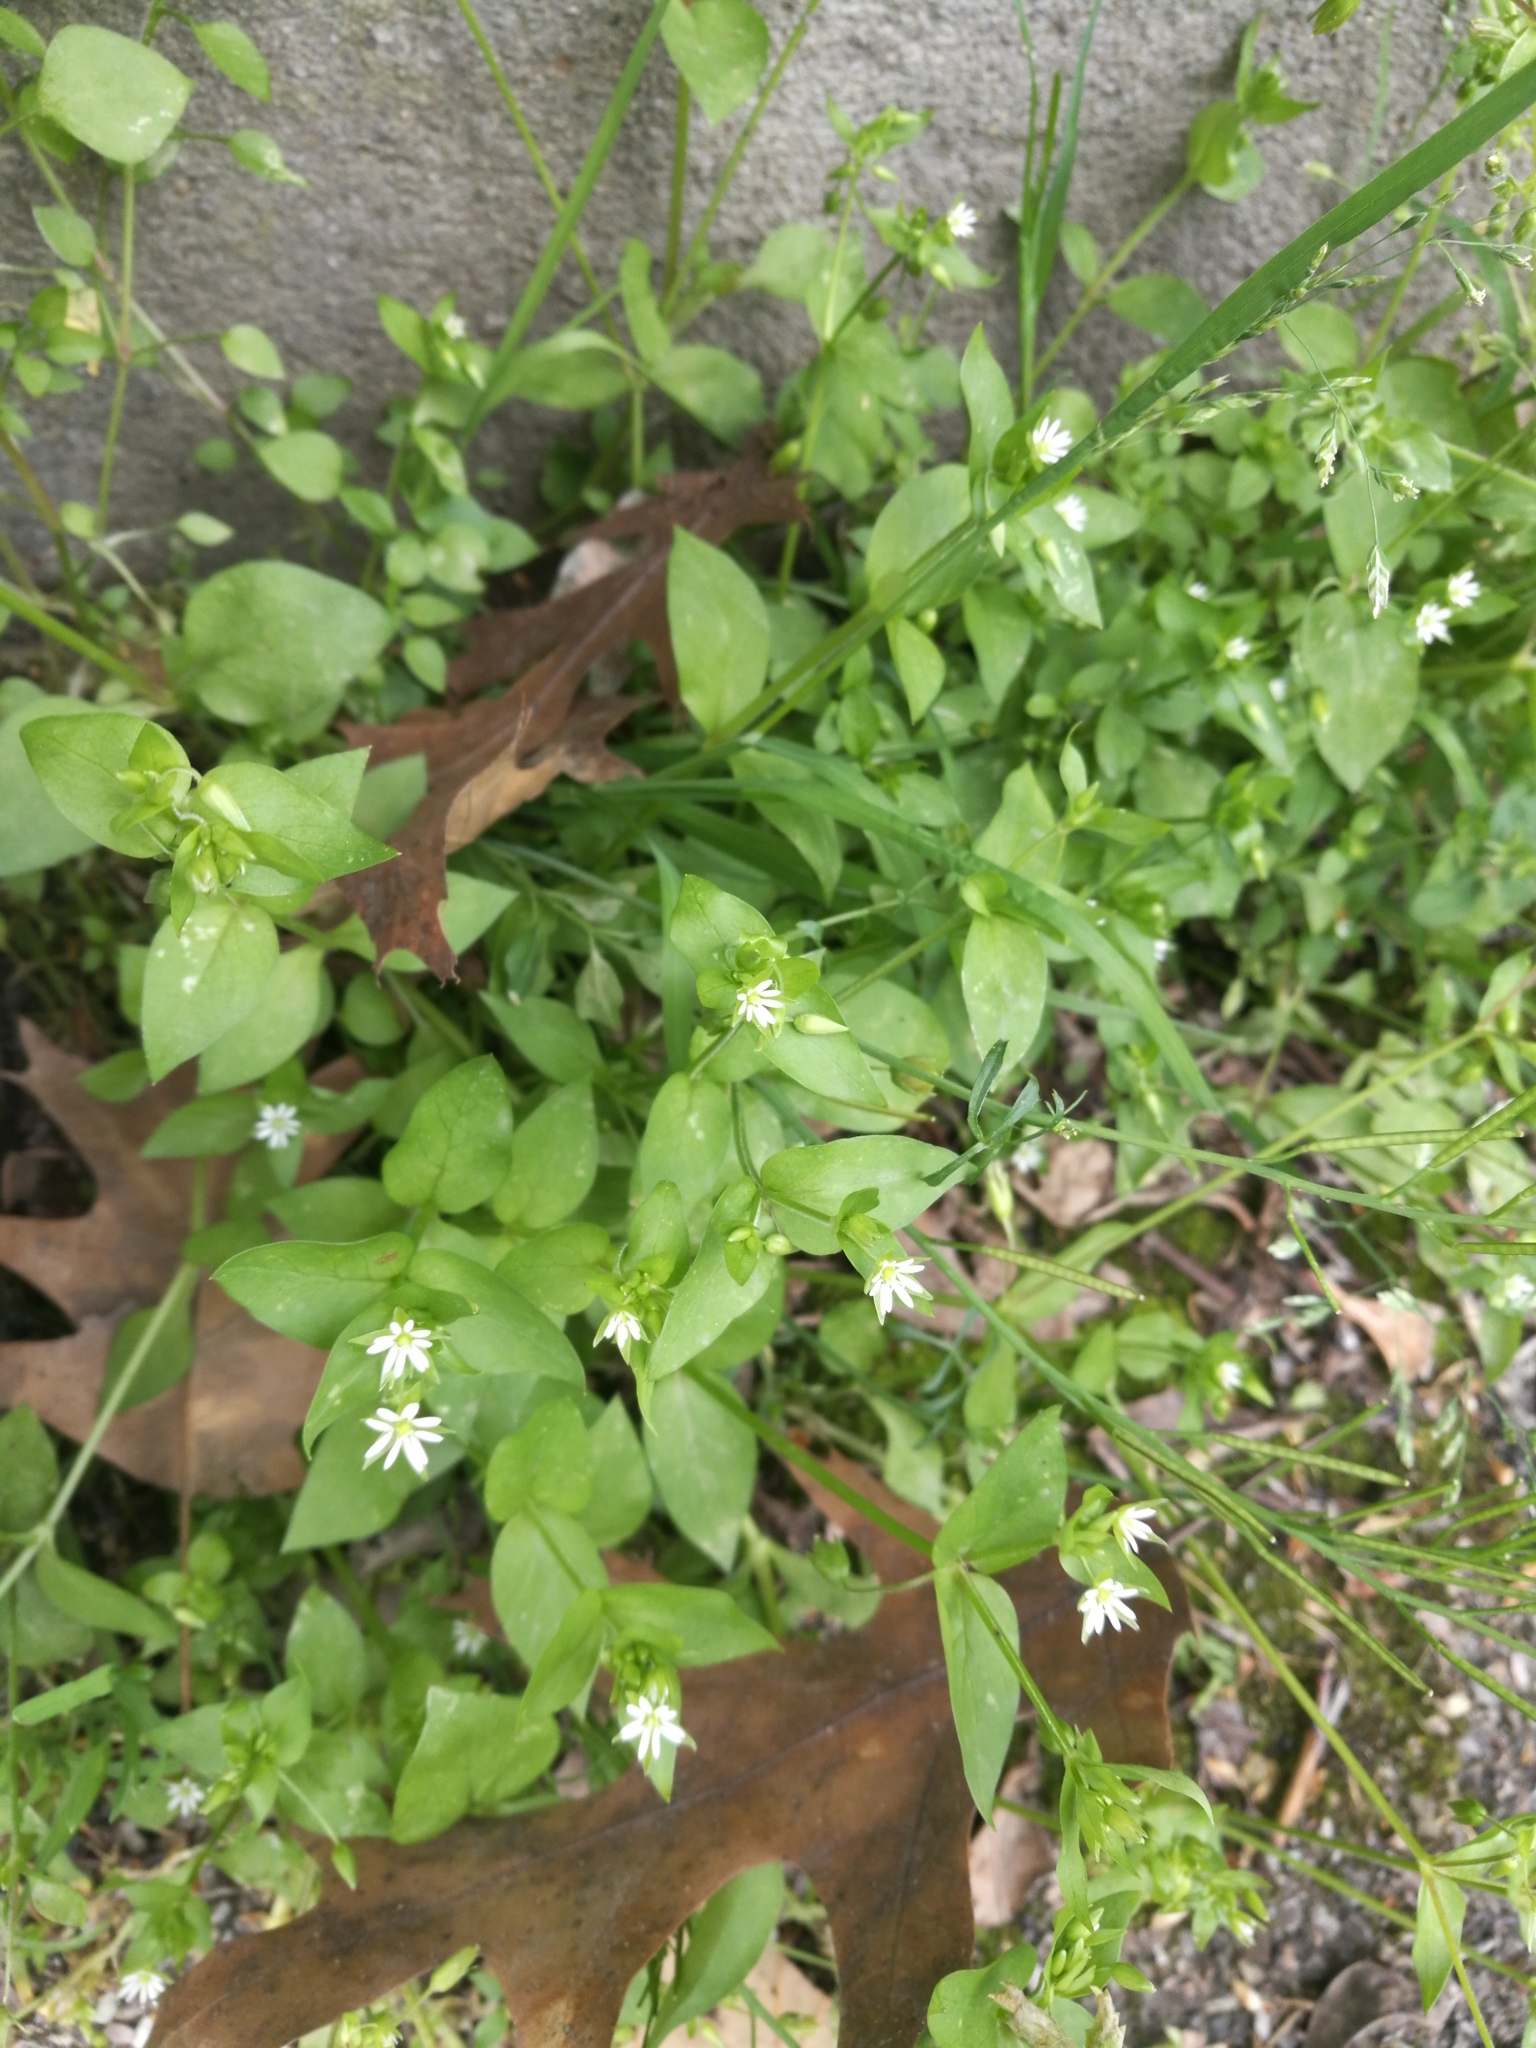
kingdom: Plantae
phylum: Tracheophyta
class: Magnoliopsida
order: Caryophyllales
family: Caryophyllaceae
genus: Stellaria
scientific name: Stellaria media
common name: Common chickweed
